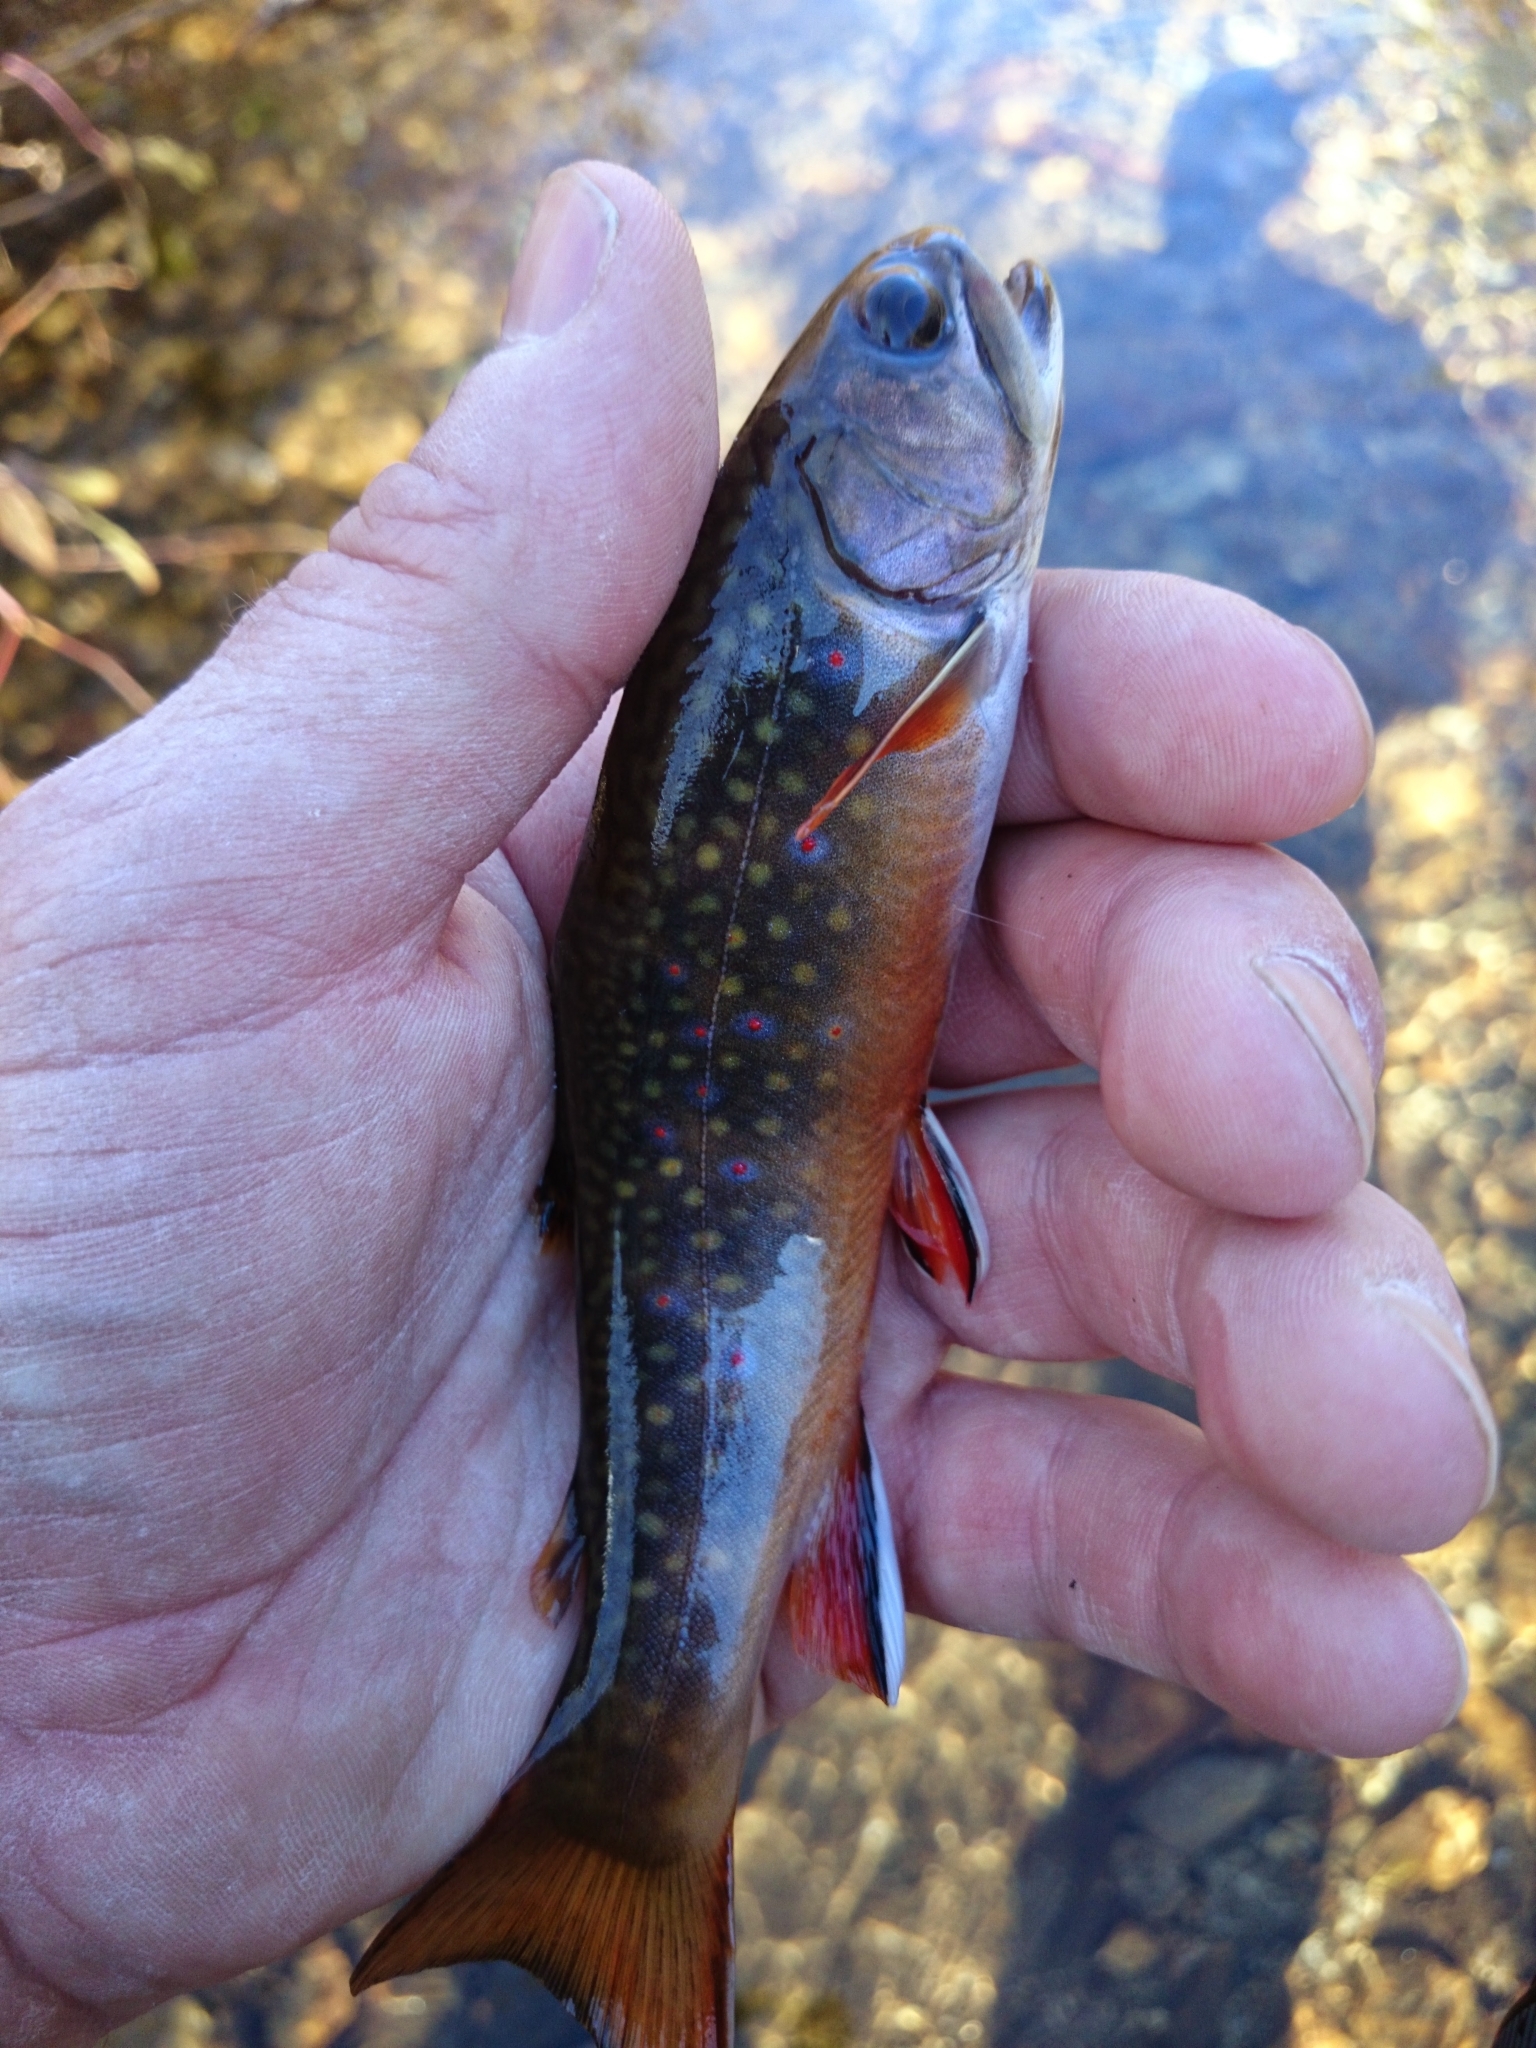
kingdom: Animalia
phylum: Chordata
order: Salmoniformes
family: Salmonidae
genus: Salvelinus
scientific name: Salvelinus fontinalis
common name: Brook trout
